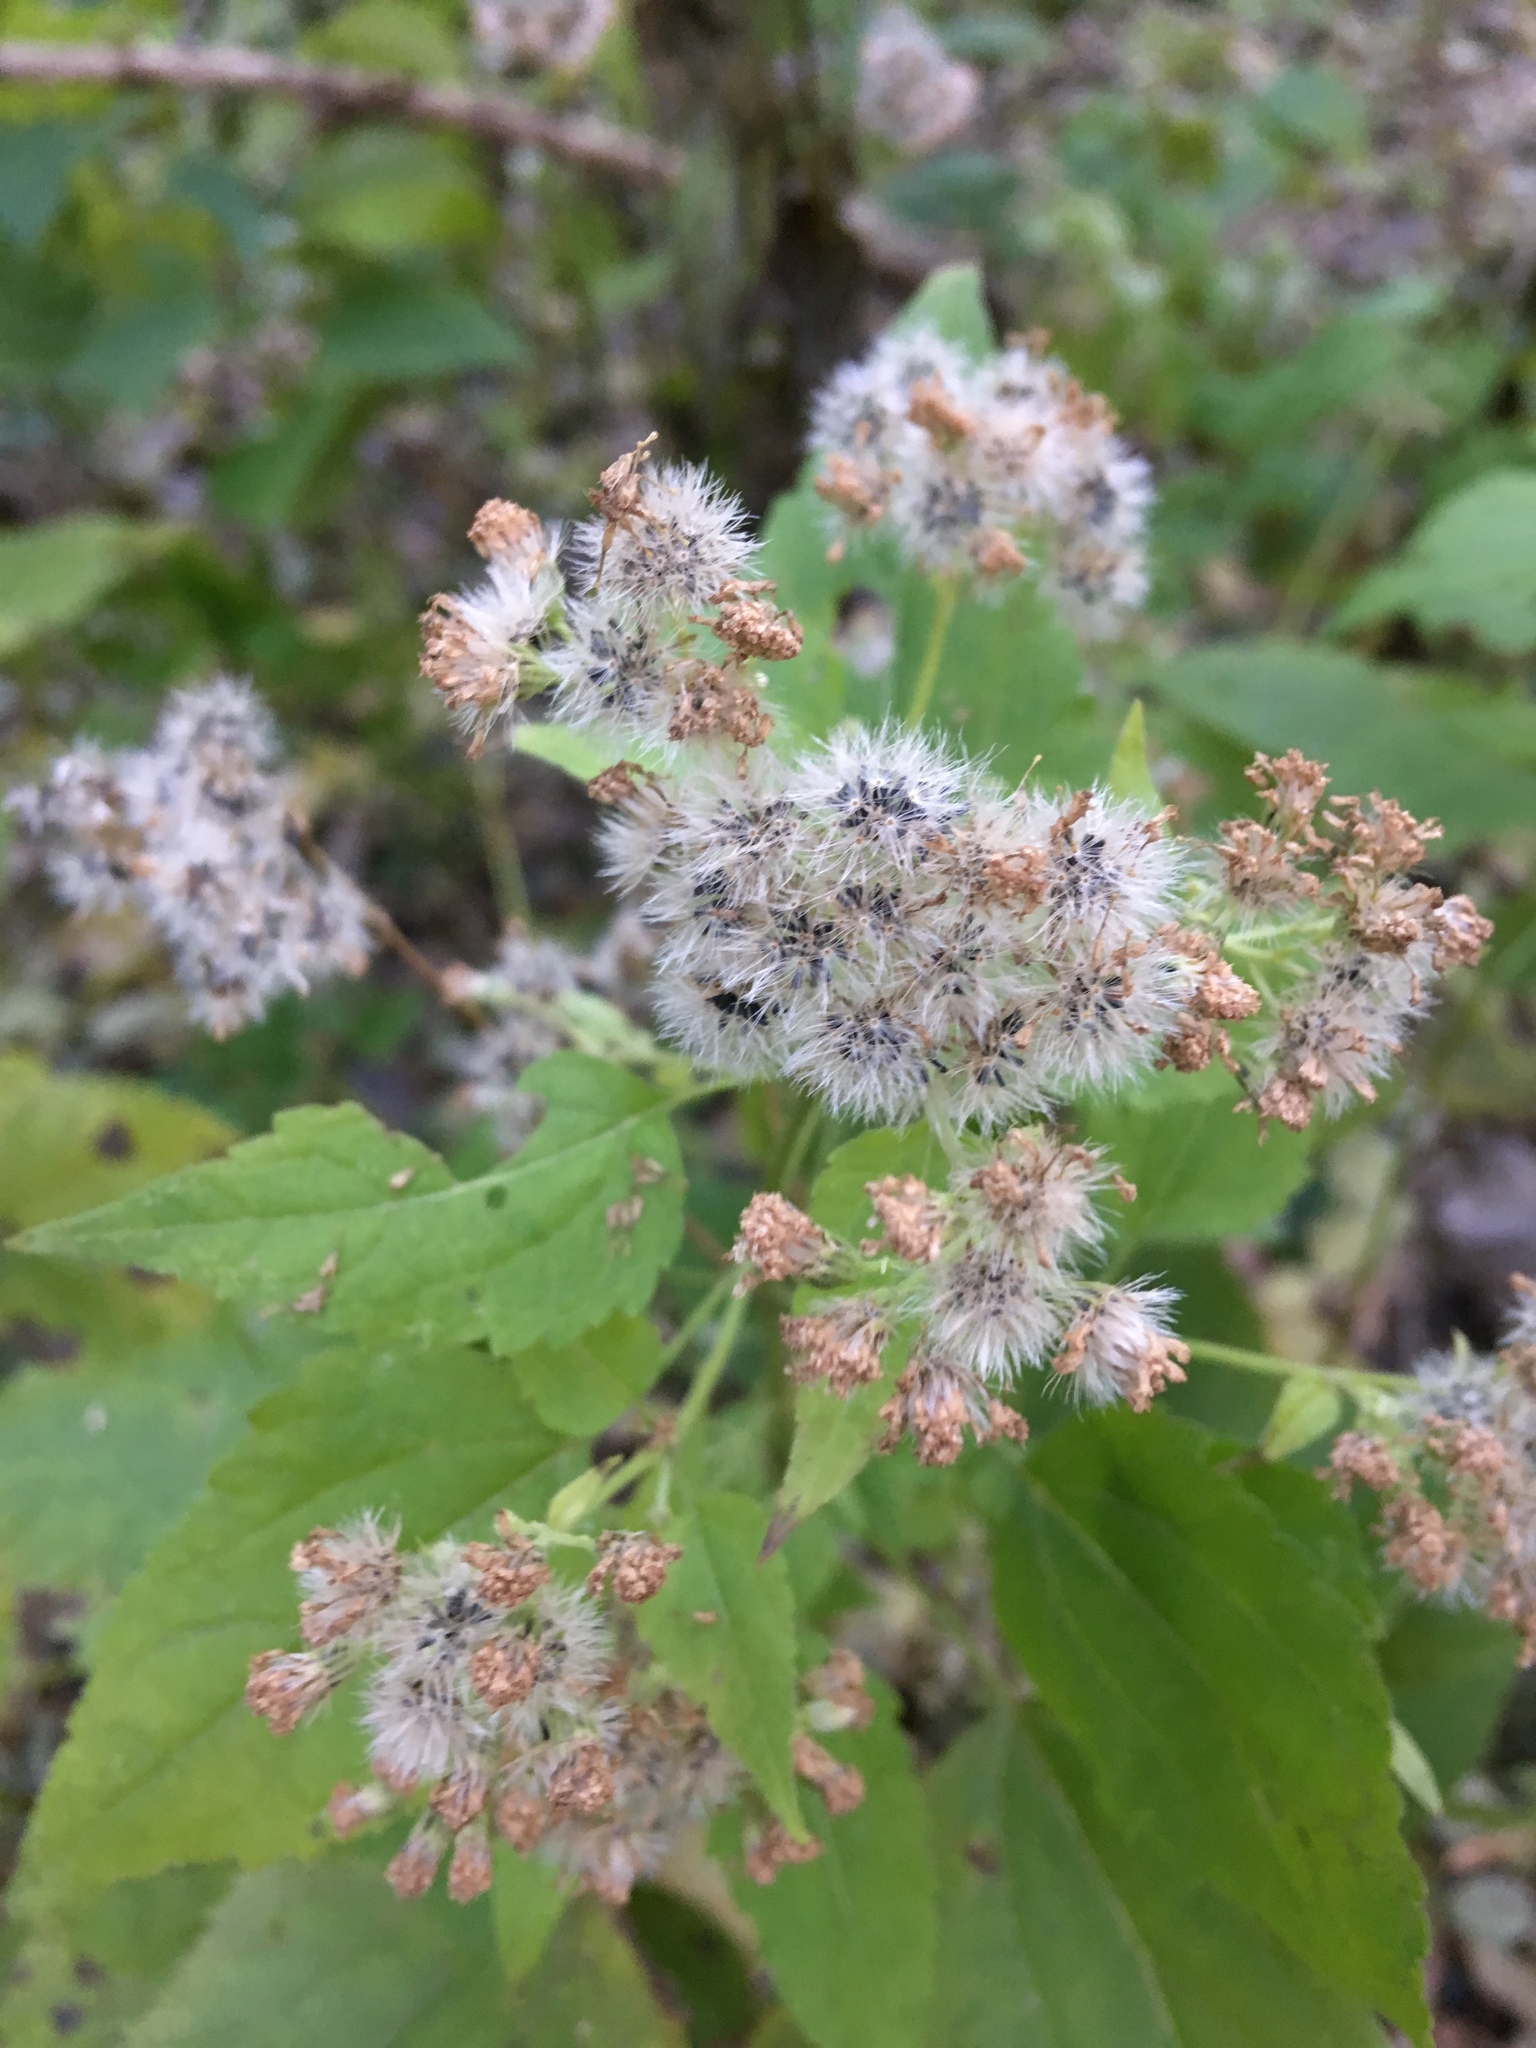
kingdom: Plantae
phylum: Tracheophyta
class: Magnoliopsida
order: Asterales
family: Asteraceae
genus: Ageratina
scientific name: Ageratina altissima
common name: White snakeroot
